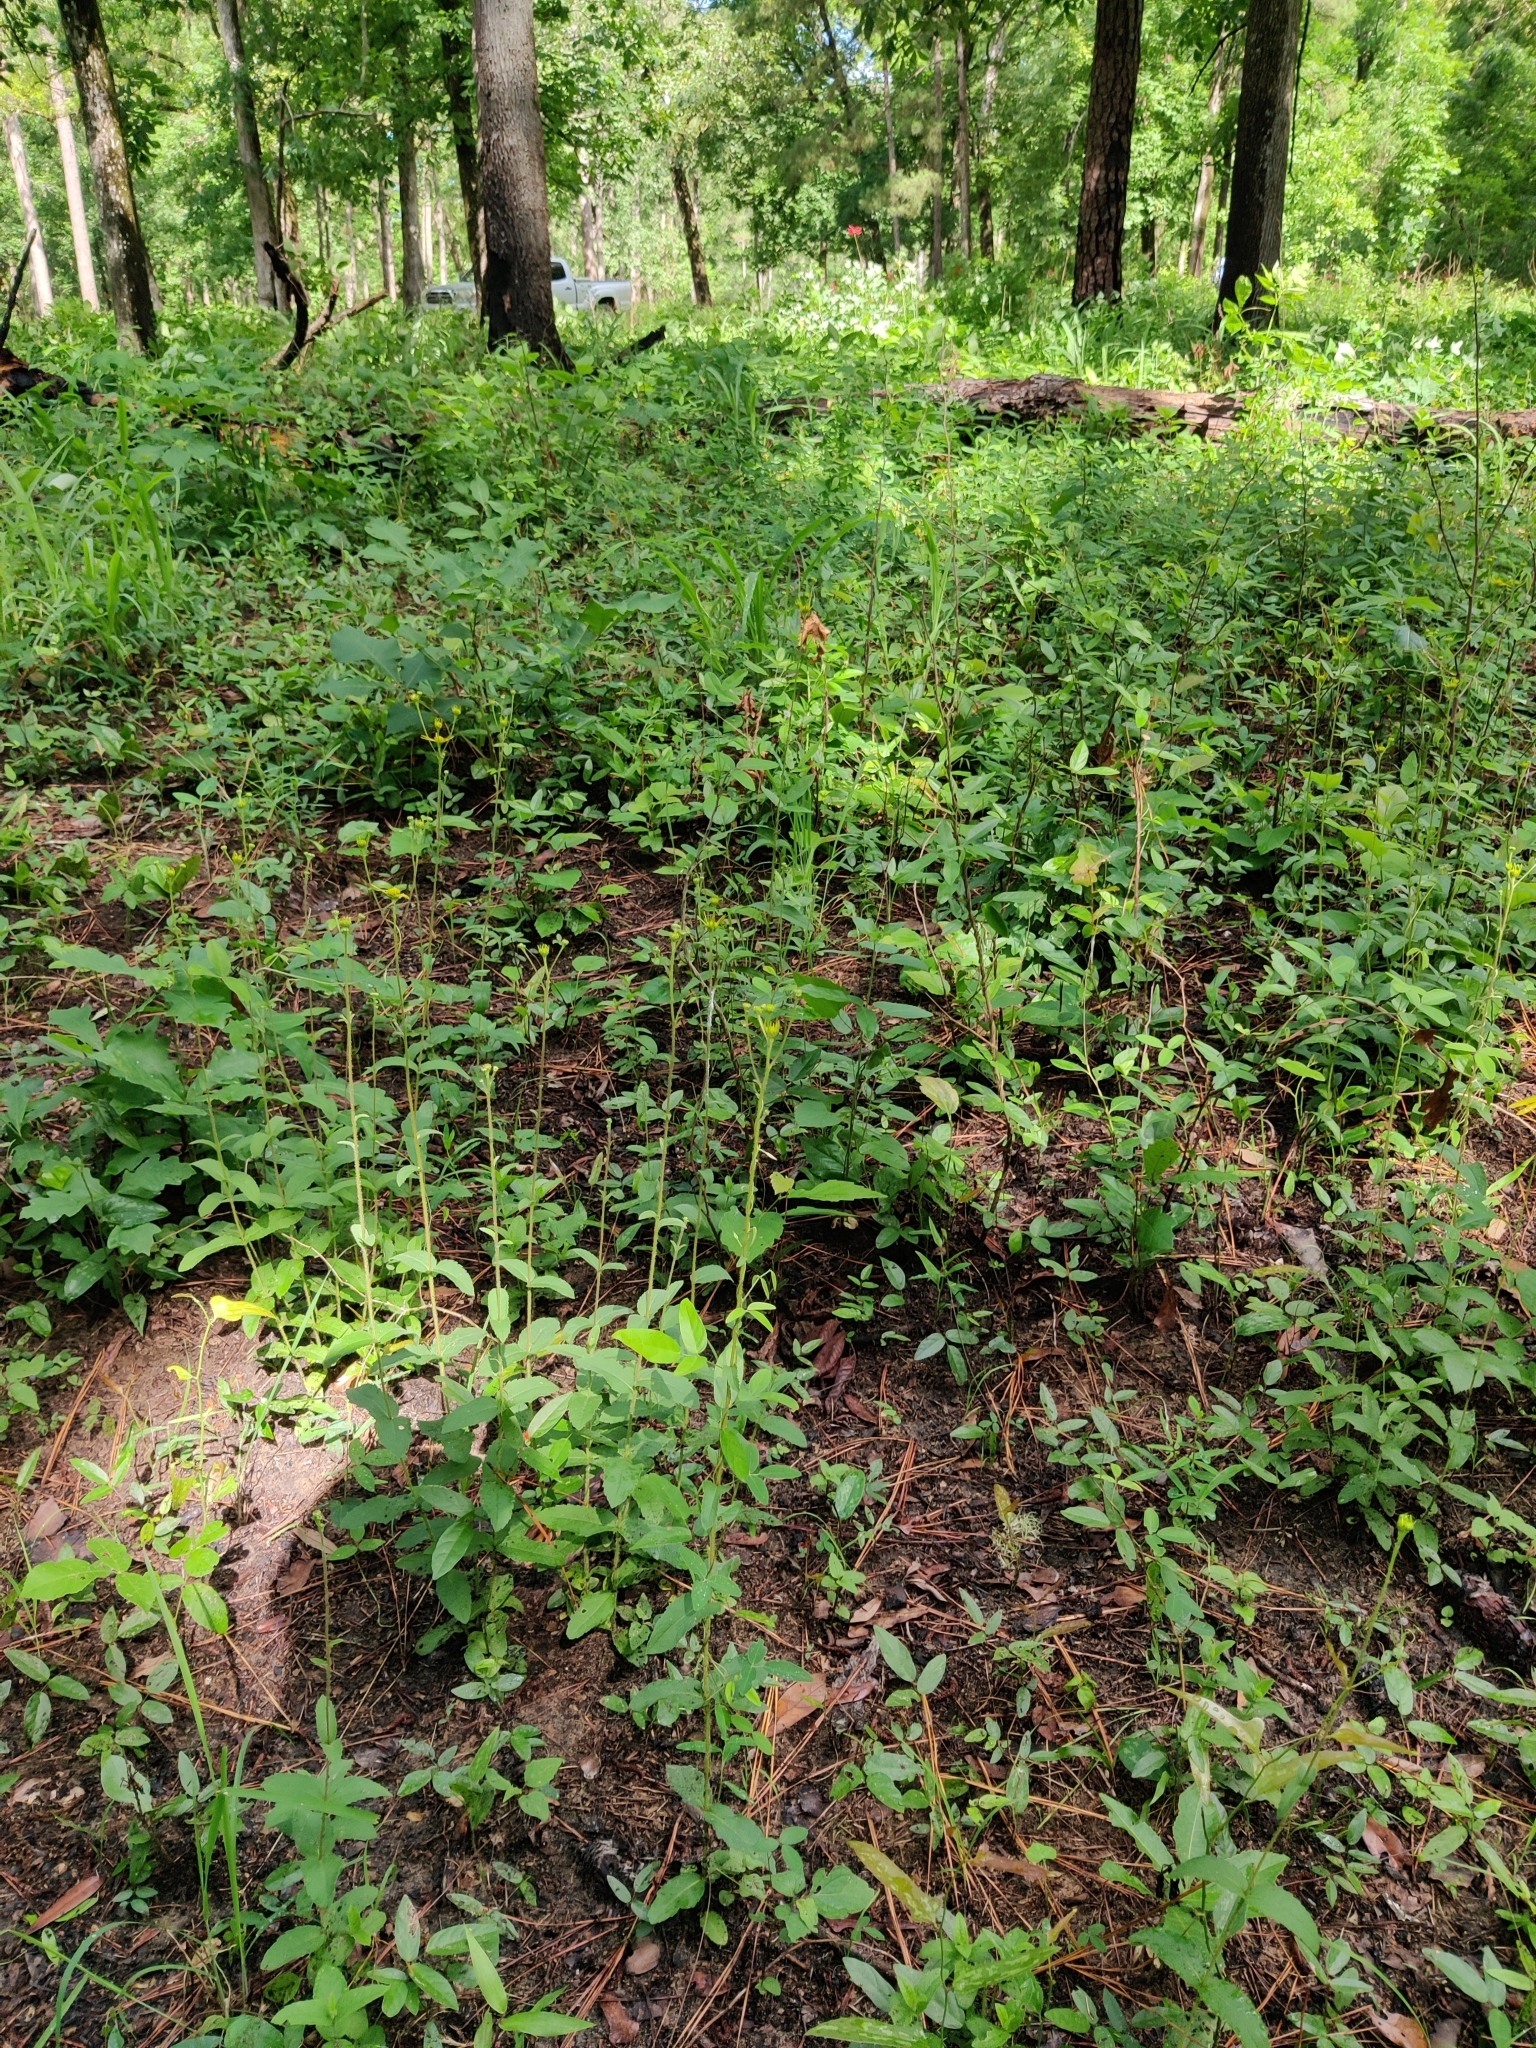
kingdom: Plantae
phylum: Tracheophyta
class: Magnoliopsida
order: Asterales
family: Asteraceae
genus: Verbesina
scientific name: Verbesina aristata
